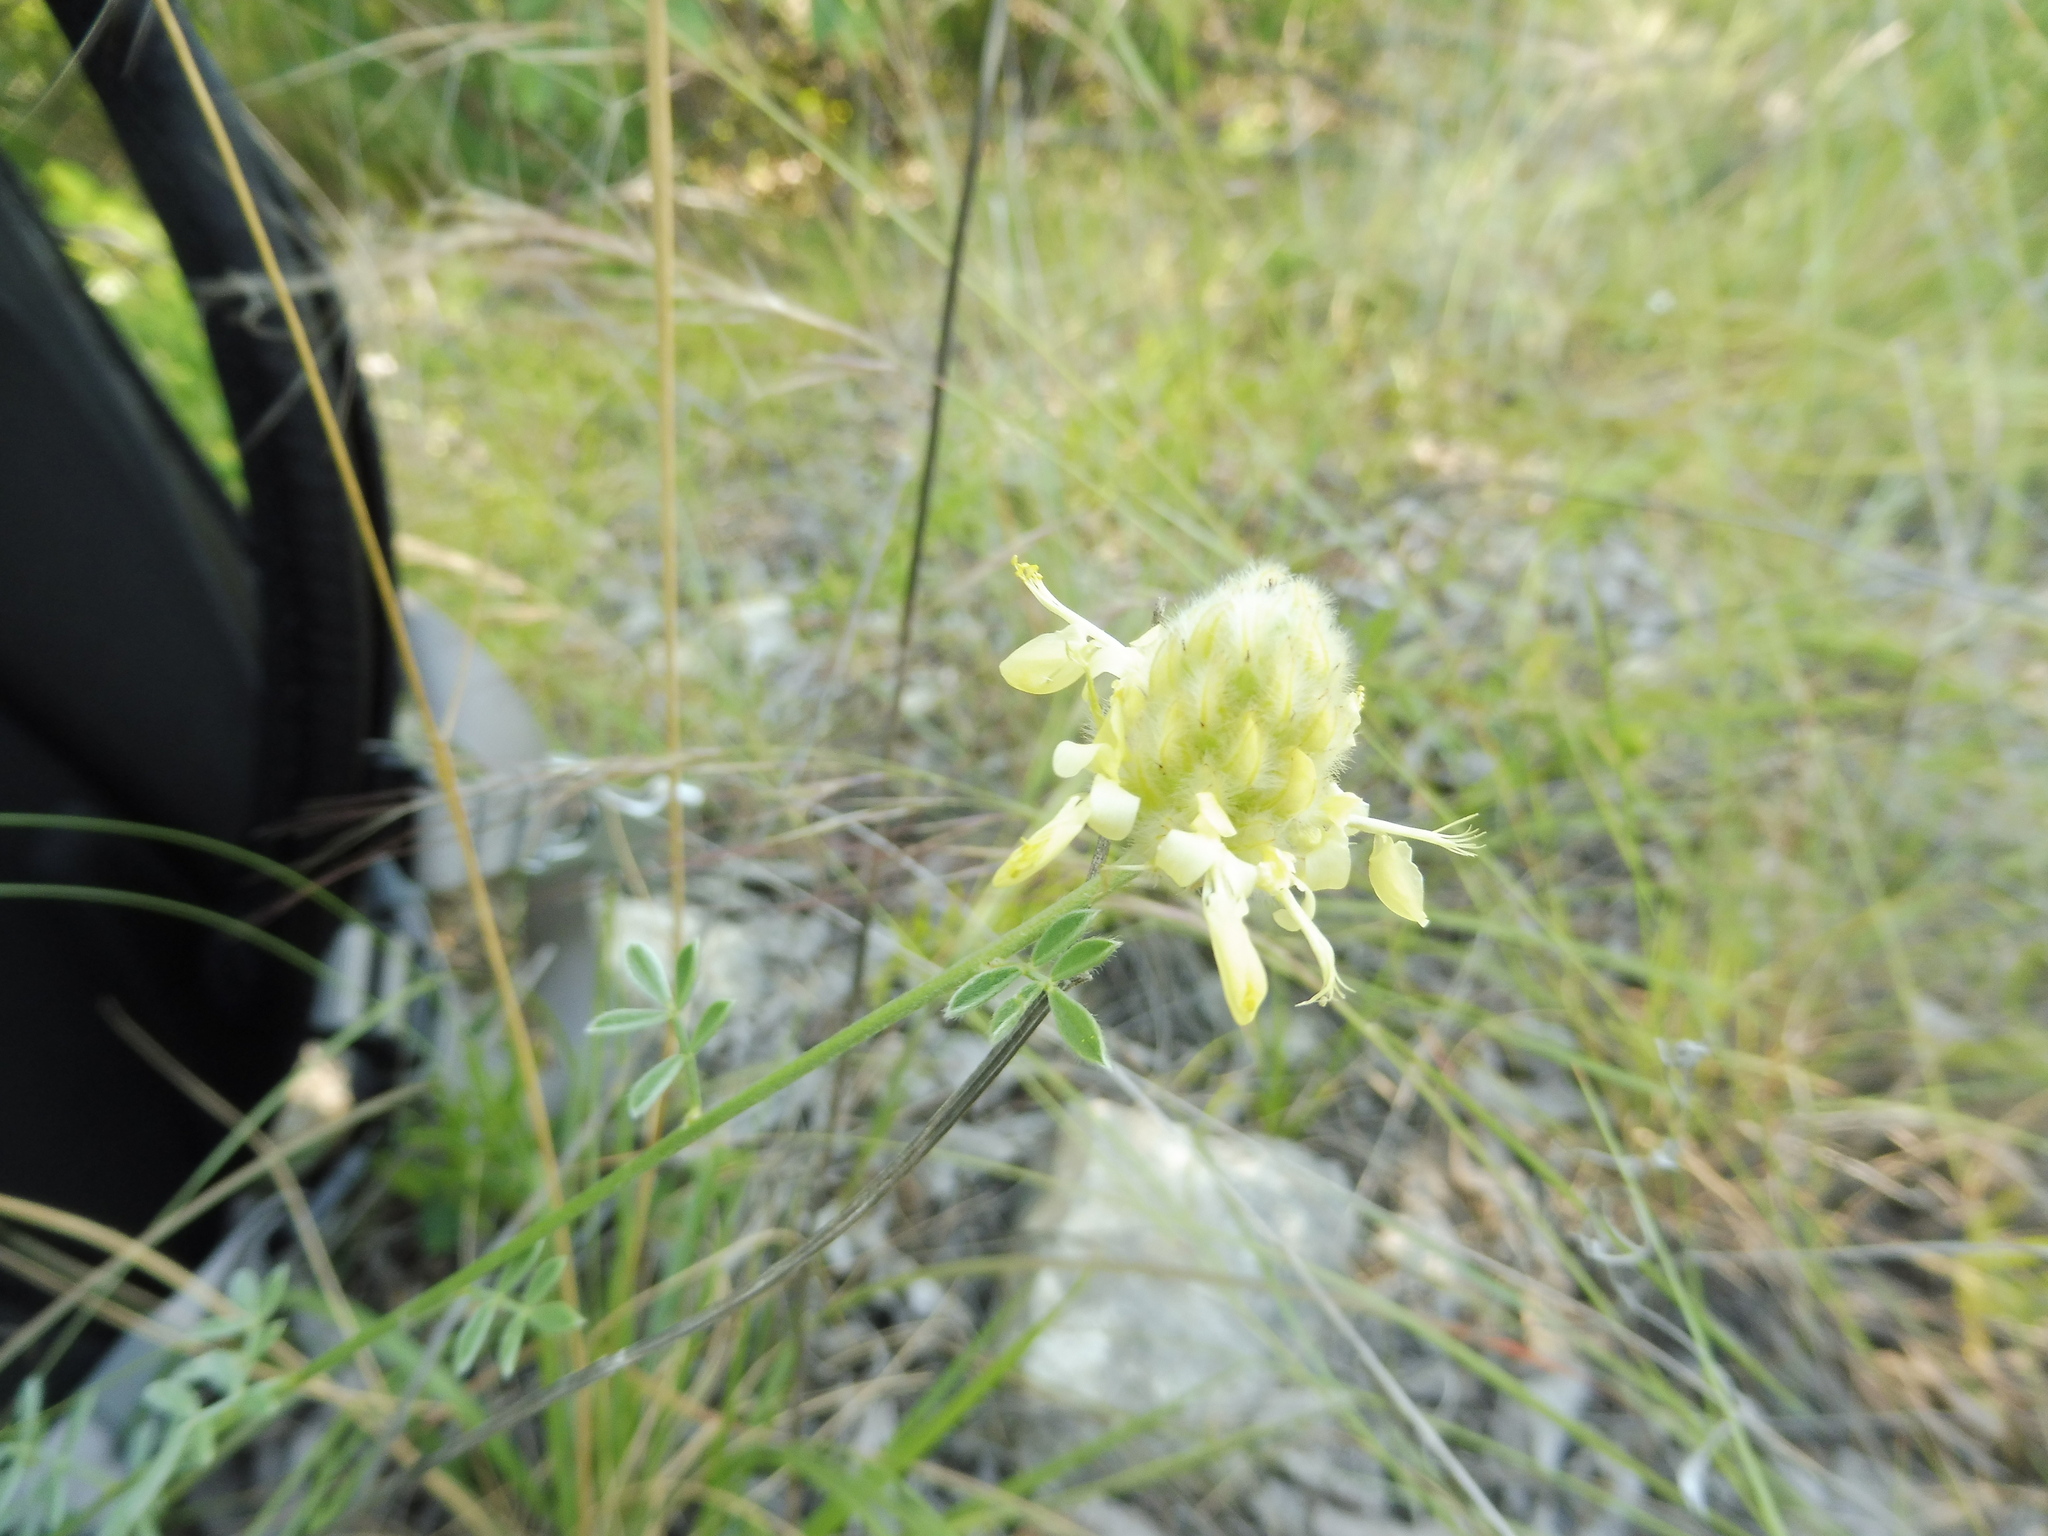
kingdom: Plantae
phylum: Tracheophyta
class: Magnoliopsida
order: Fabales
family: Fabaceae
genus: Dalea
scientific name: Dalea aurea
